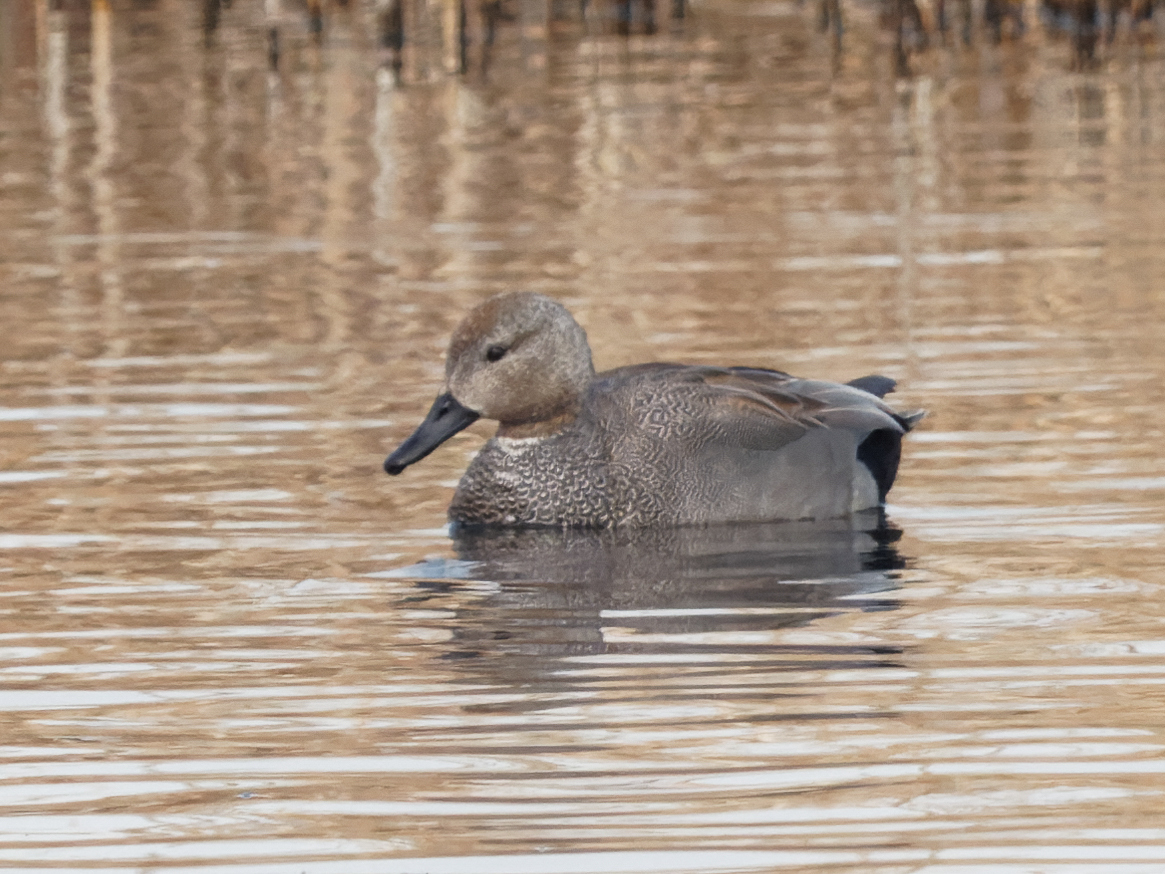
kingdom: Animalia
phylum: Chordata
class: Aves
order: Anseriformes
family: Anatidae
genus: Mareca
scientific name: Mareca strepera
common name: Gadwall
